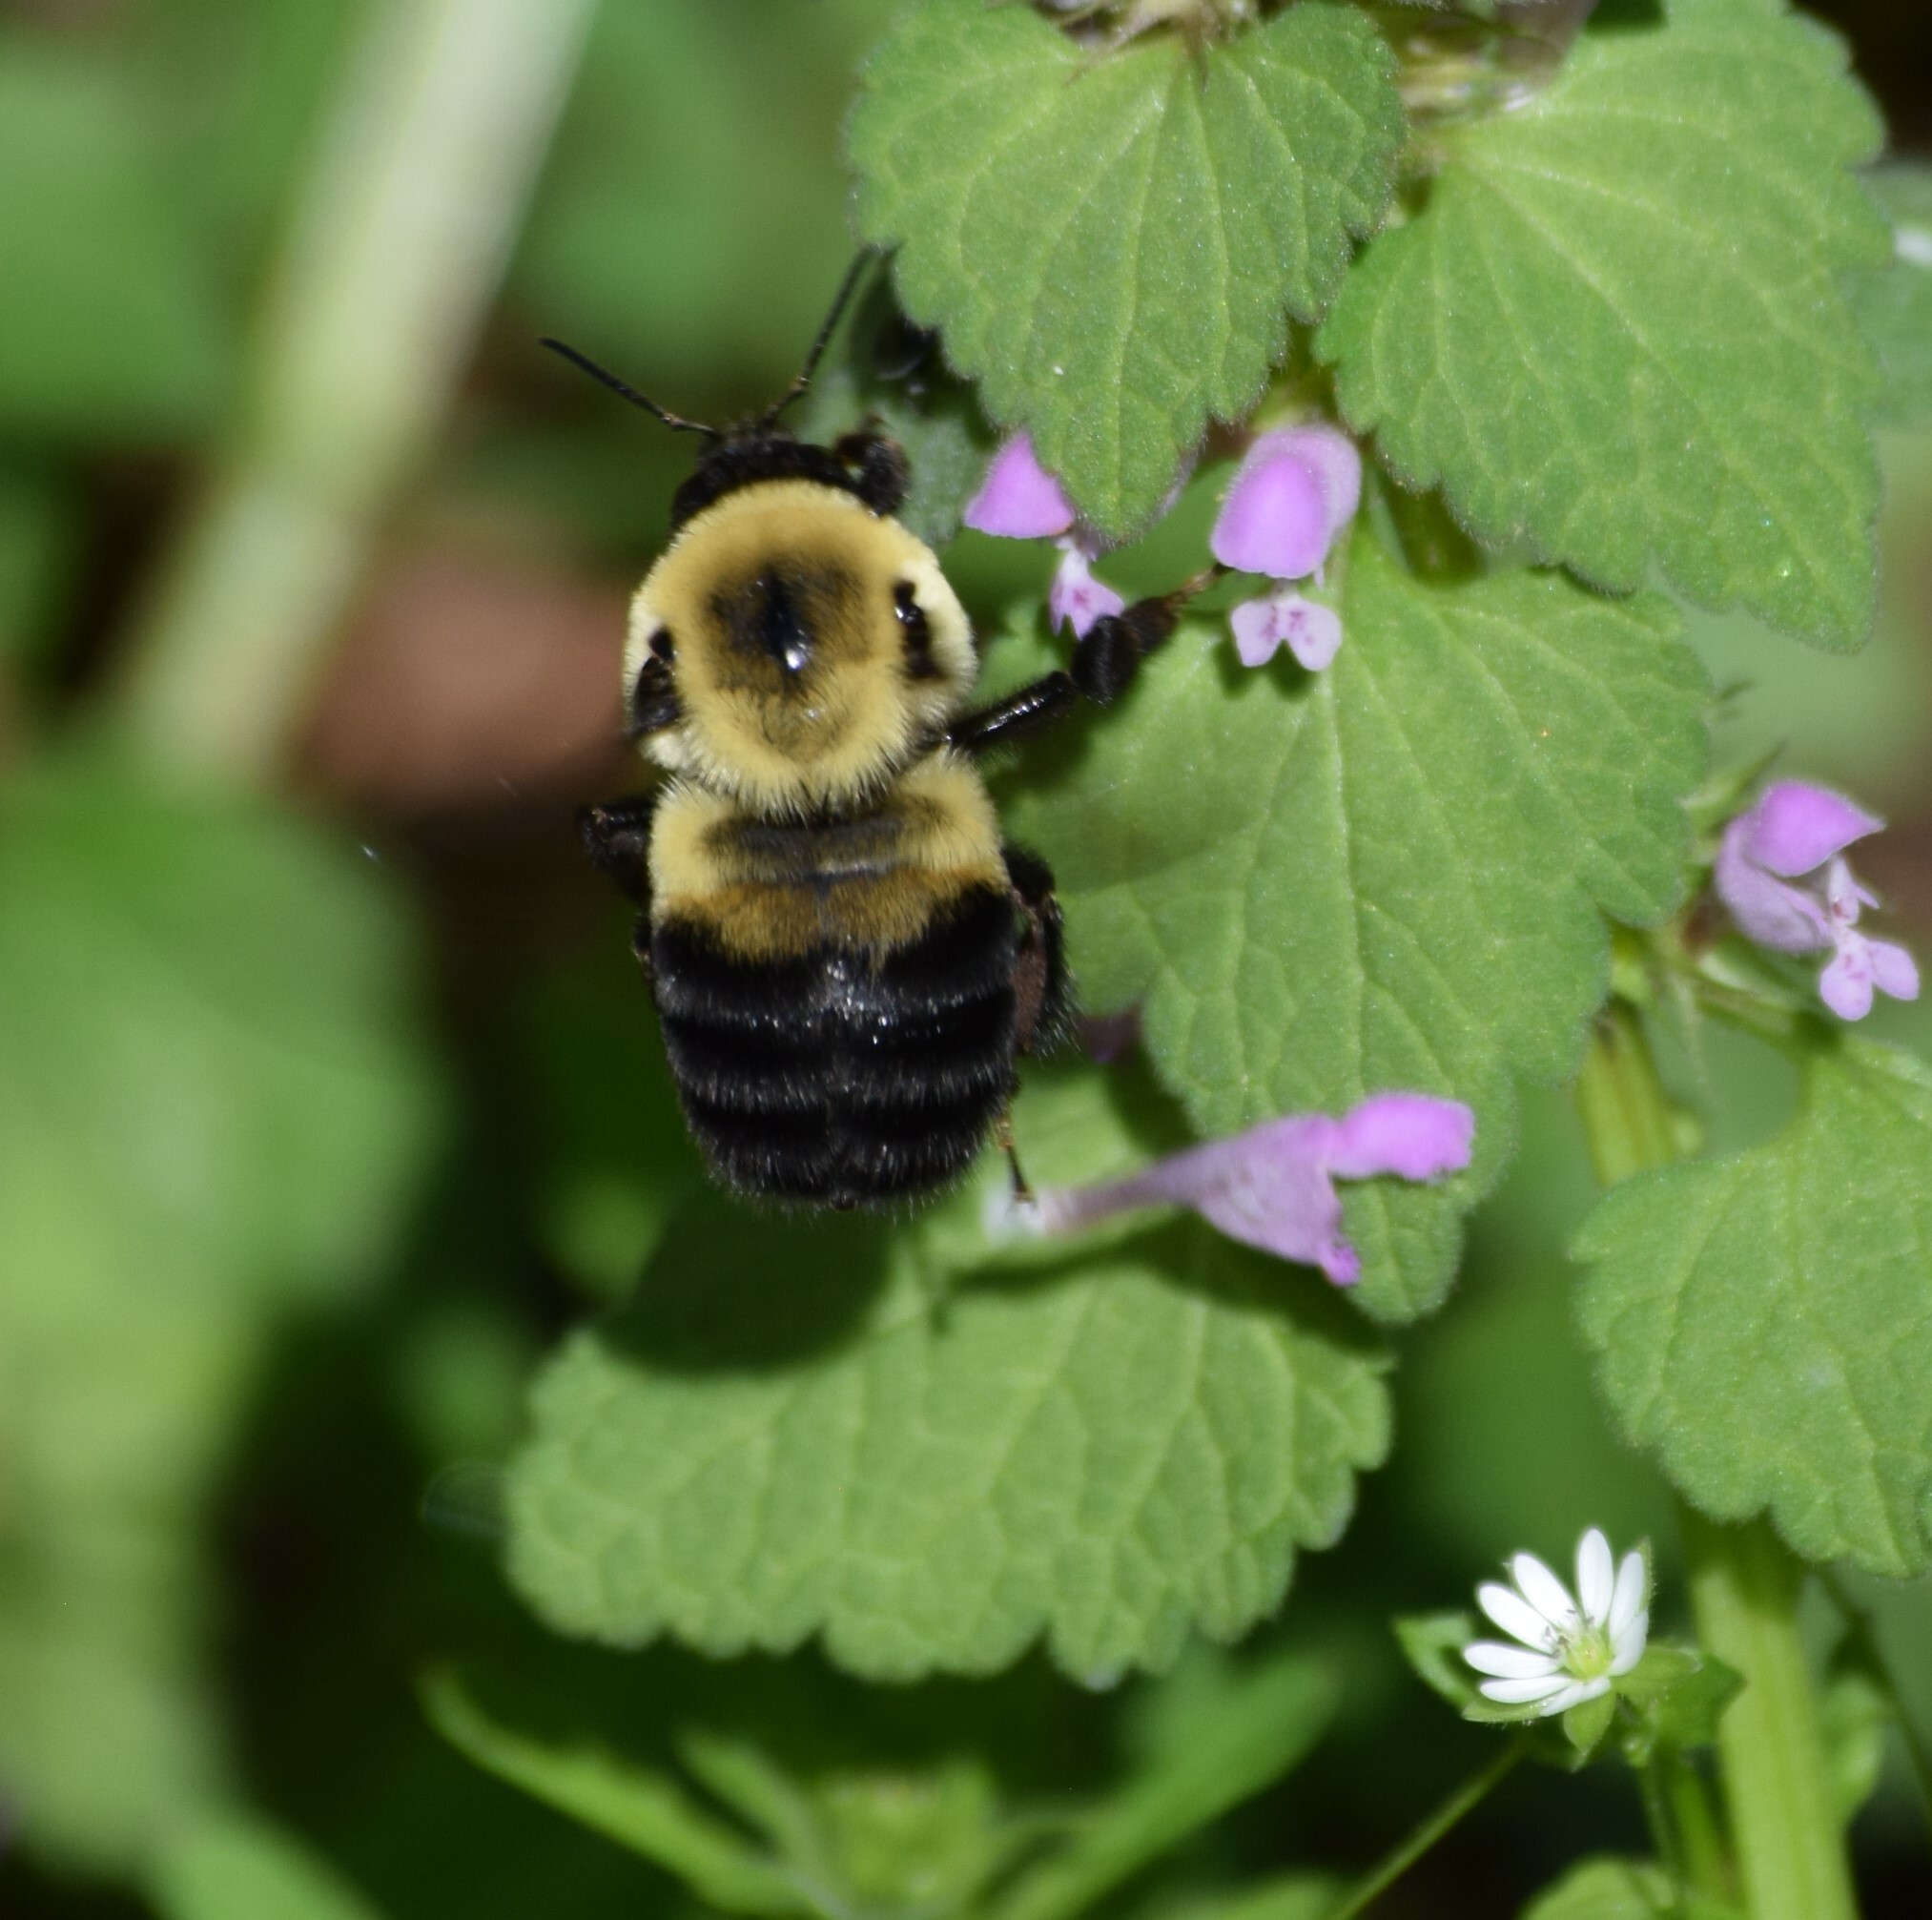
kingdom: Animalia
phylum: Arthropoda
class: Insecta
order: Hymenoptera
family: Apidae
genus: Bombus
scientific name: Bombus griseocollis
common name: Brown-belted bumble bee
